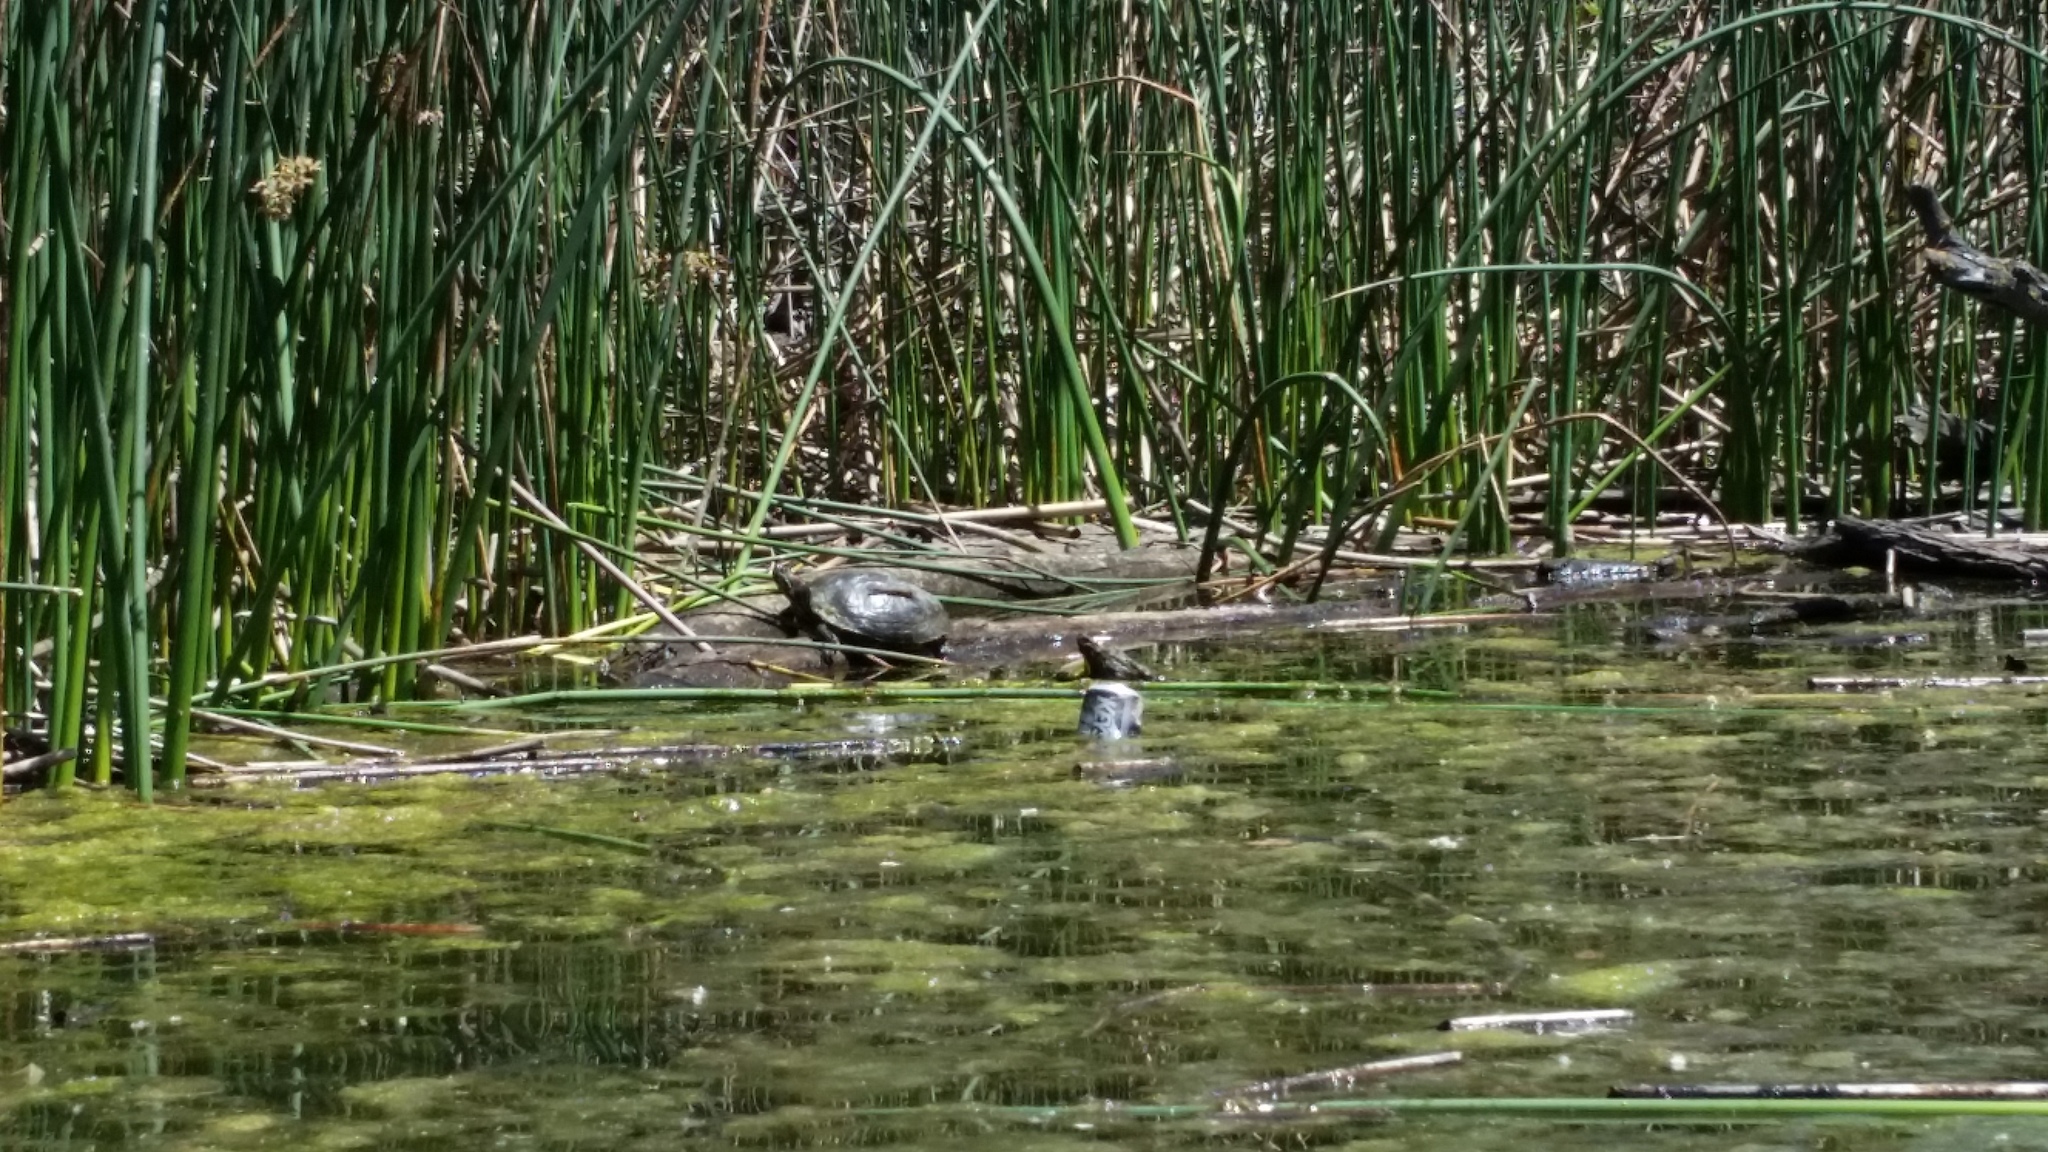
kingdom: Animalia
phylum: Chordata
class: Testudines
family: Emydidae
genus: Trachemys
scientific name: Trachemys scripta
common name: Slider
